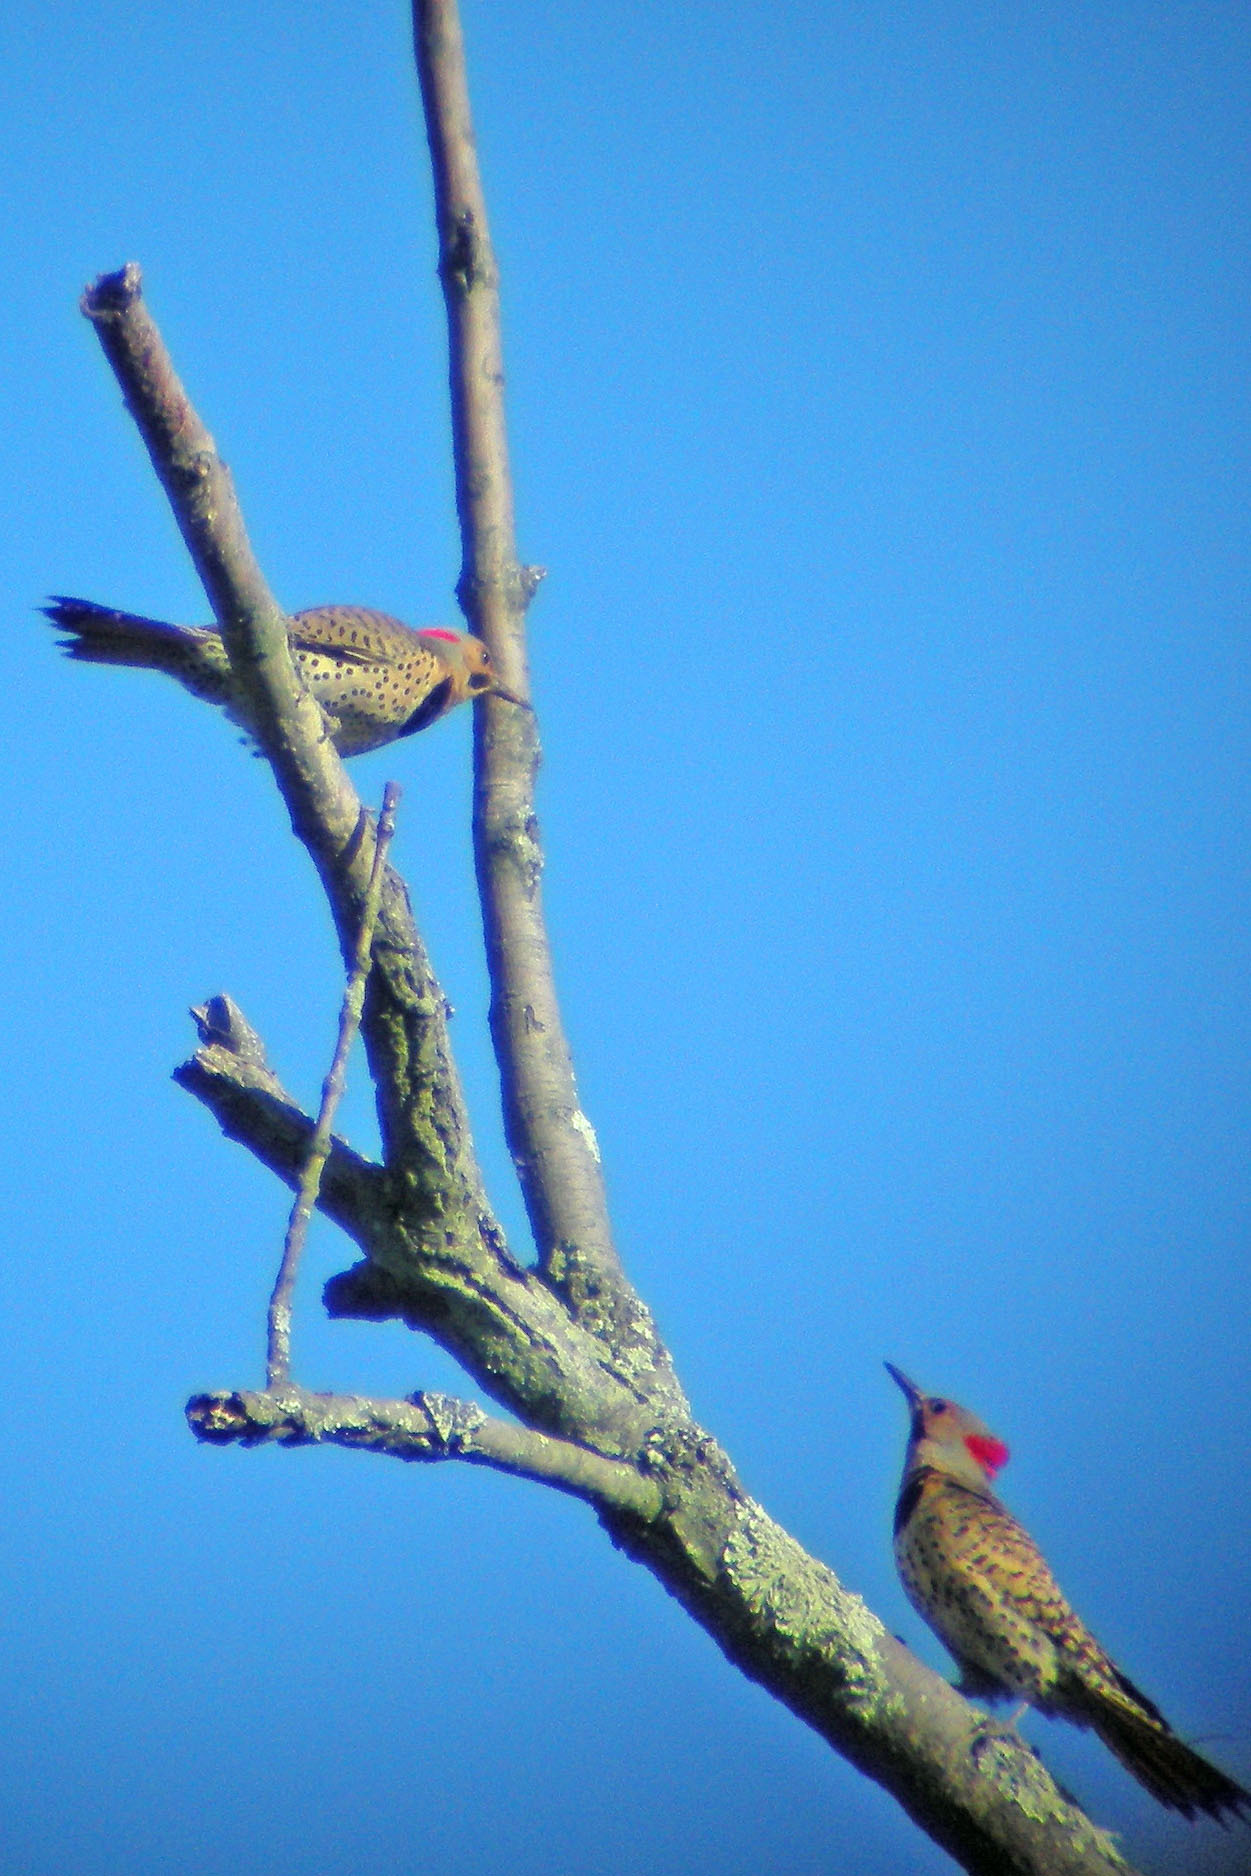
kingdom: Animalia
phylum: Chordata
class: Aves
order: Piciformes
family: Picidae
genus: Colaptes
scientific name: Colaptes auratus
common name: Northern flicker
